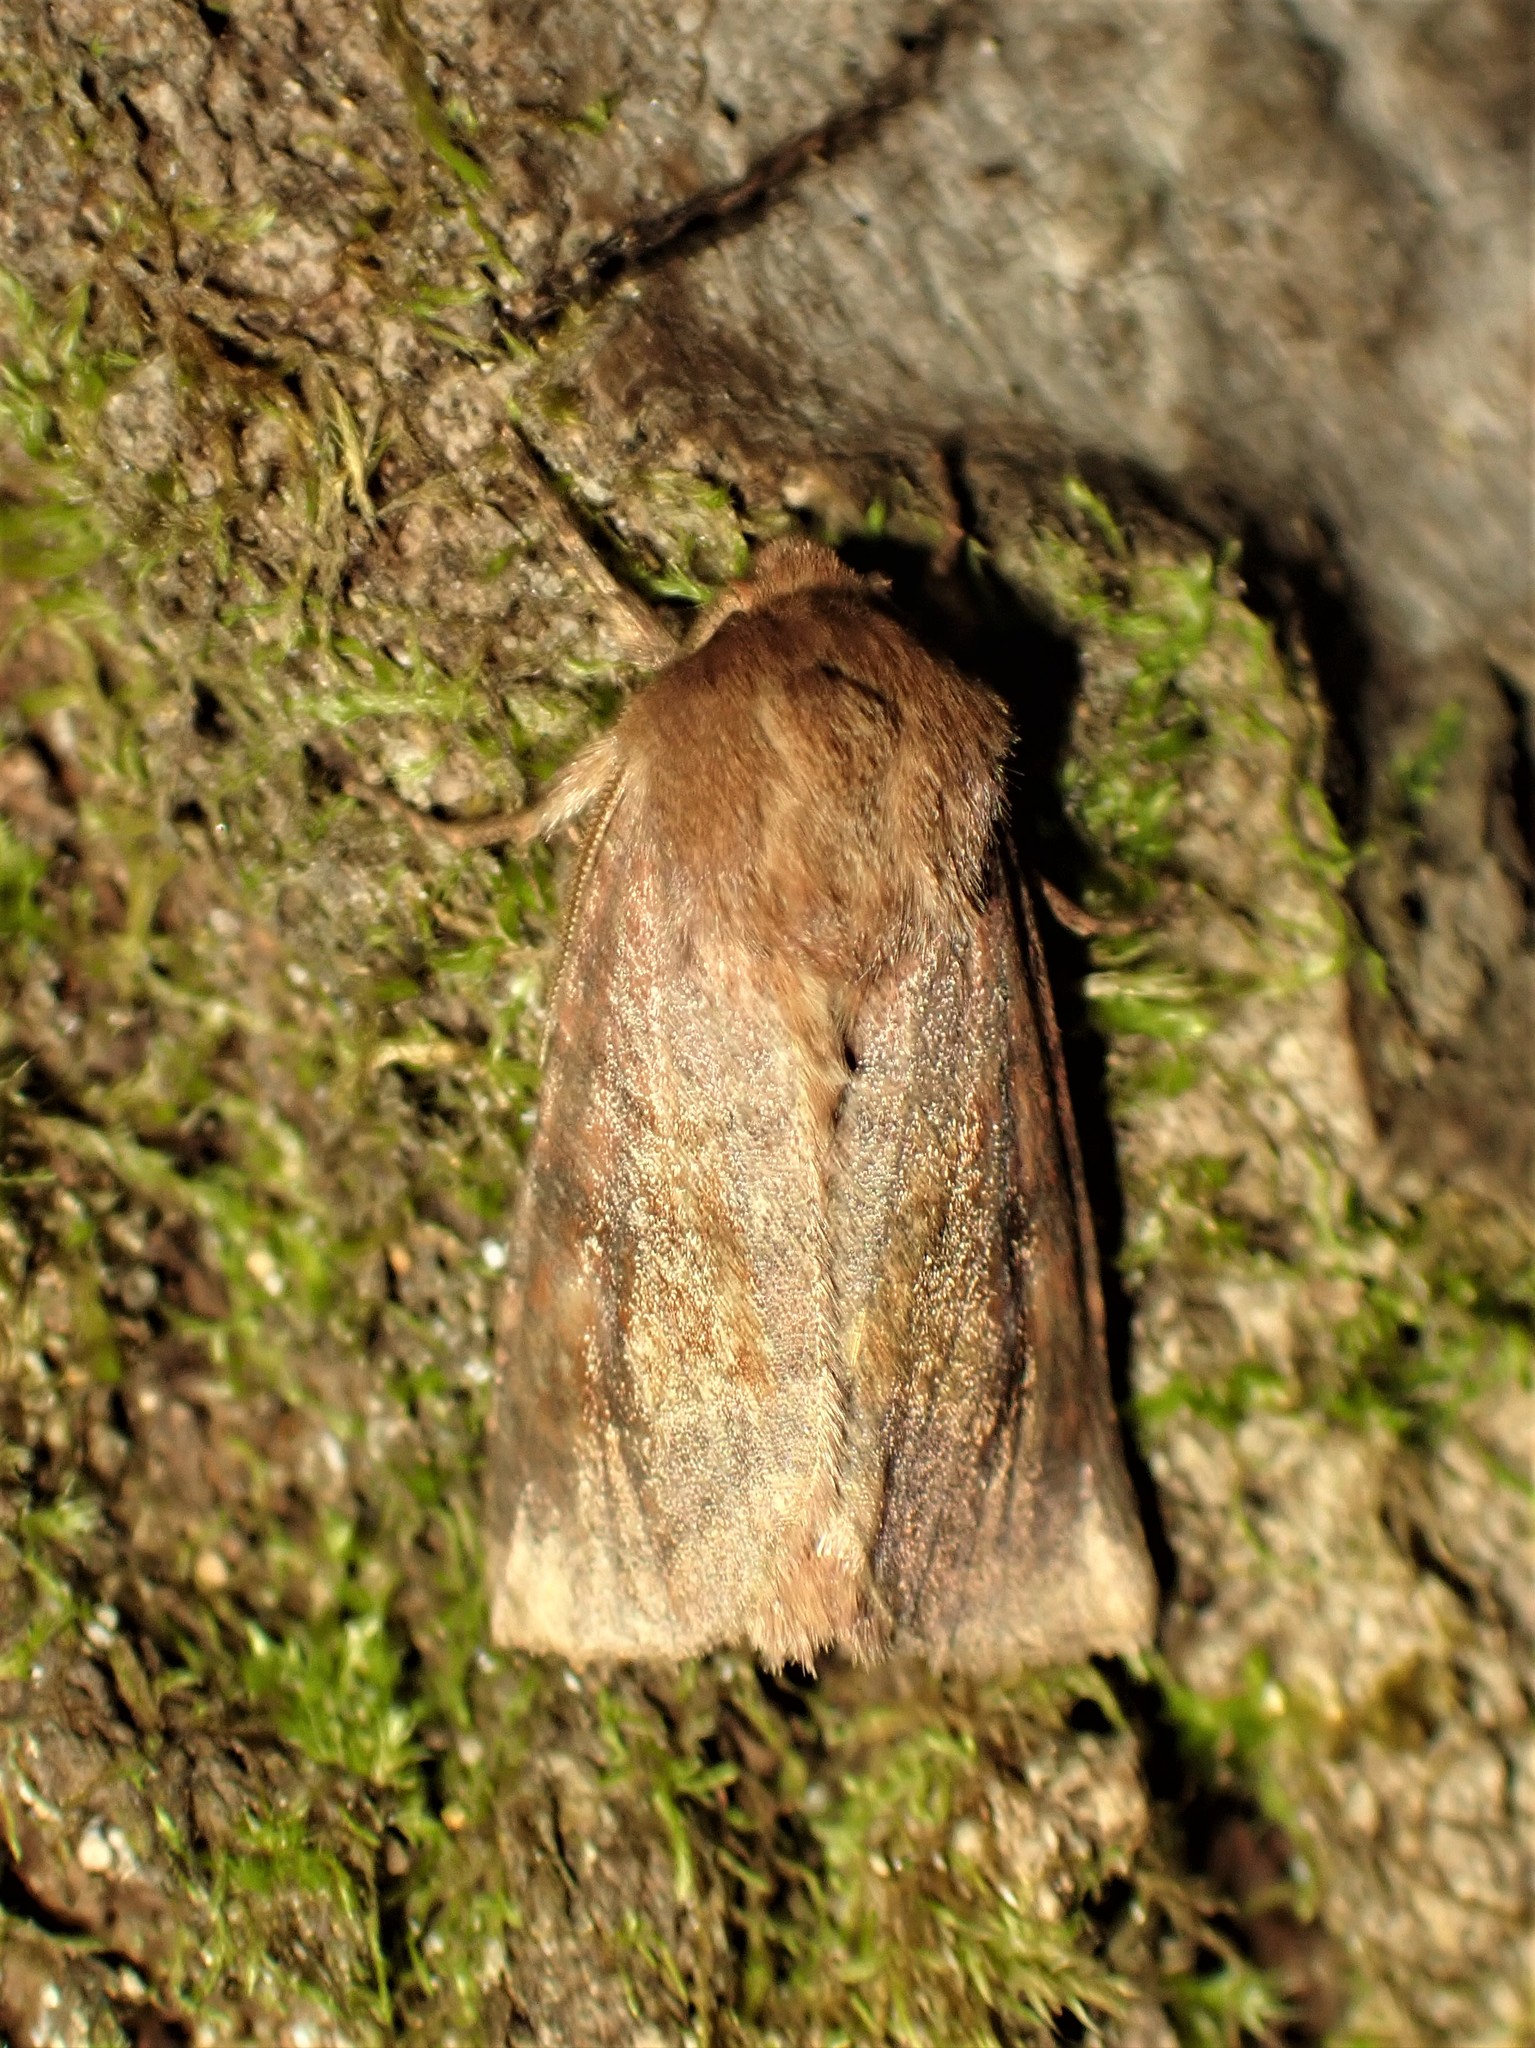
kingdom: Animalia
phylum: Arthropoda
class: Insecta
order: Lepidoptera
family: Noctuidae
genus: Nephelodes
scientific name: Nephelodes minians
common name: Bronzed cutworm
